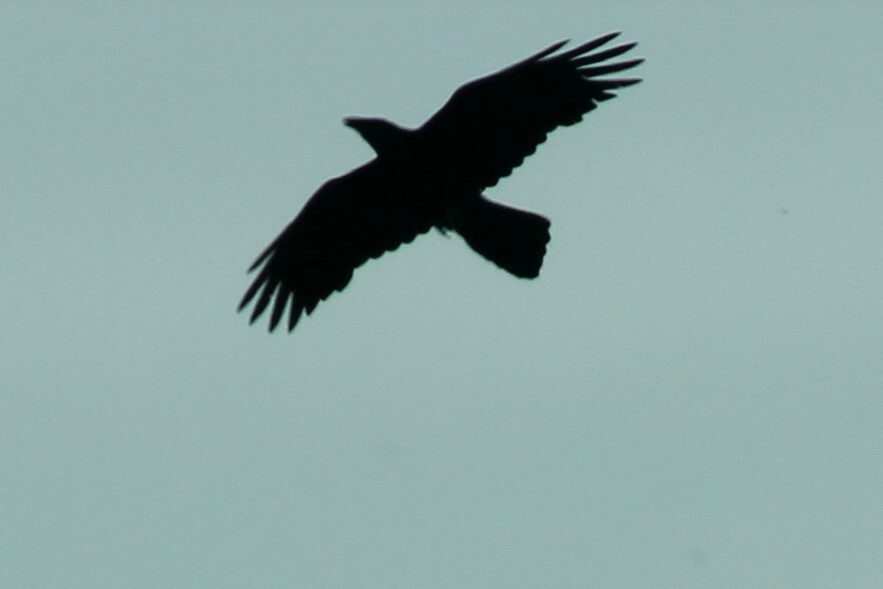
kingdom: Animalia
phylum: Chordata
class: Aves
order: Passeriformes
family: Corvidae
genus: Corvus
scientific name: Corvus corax
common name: Common raven
